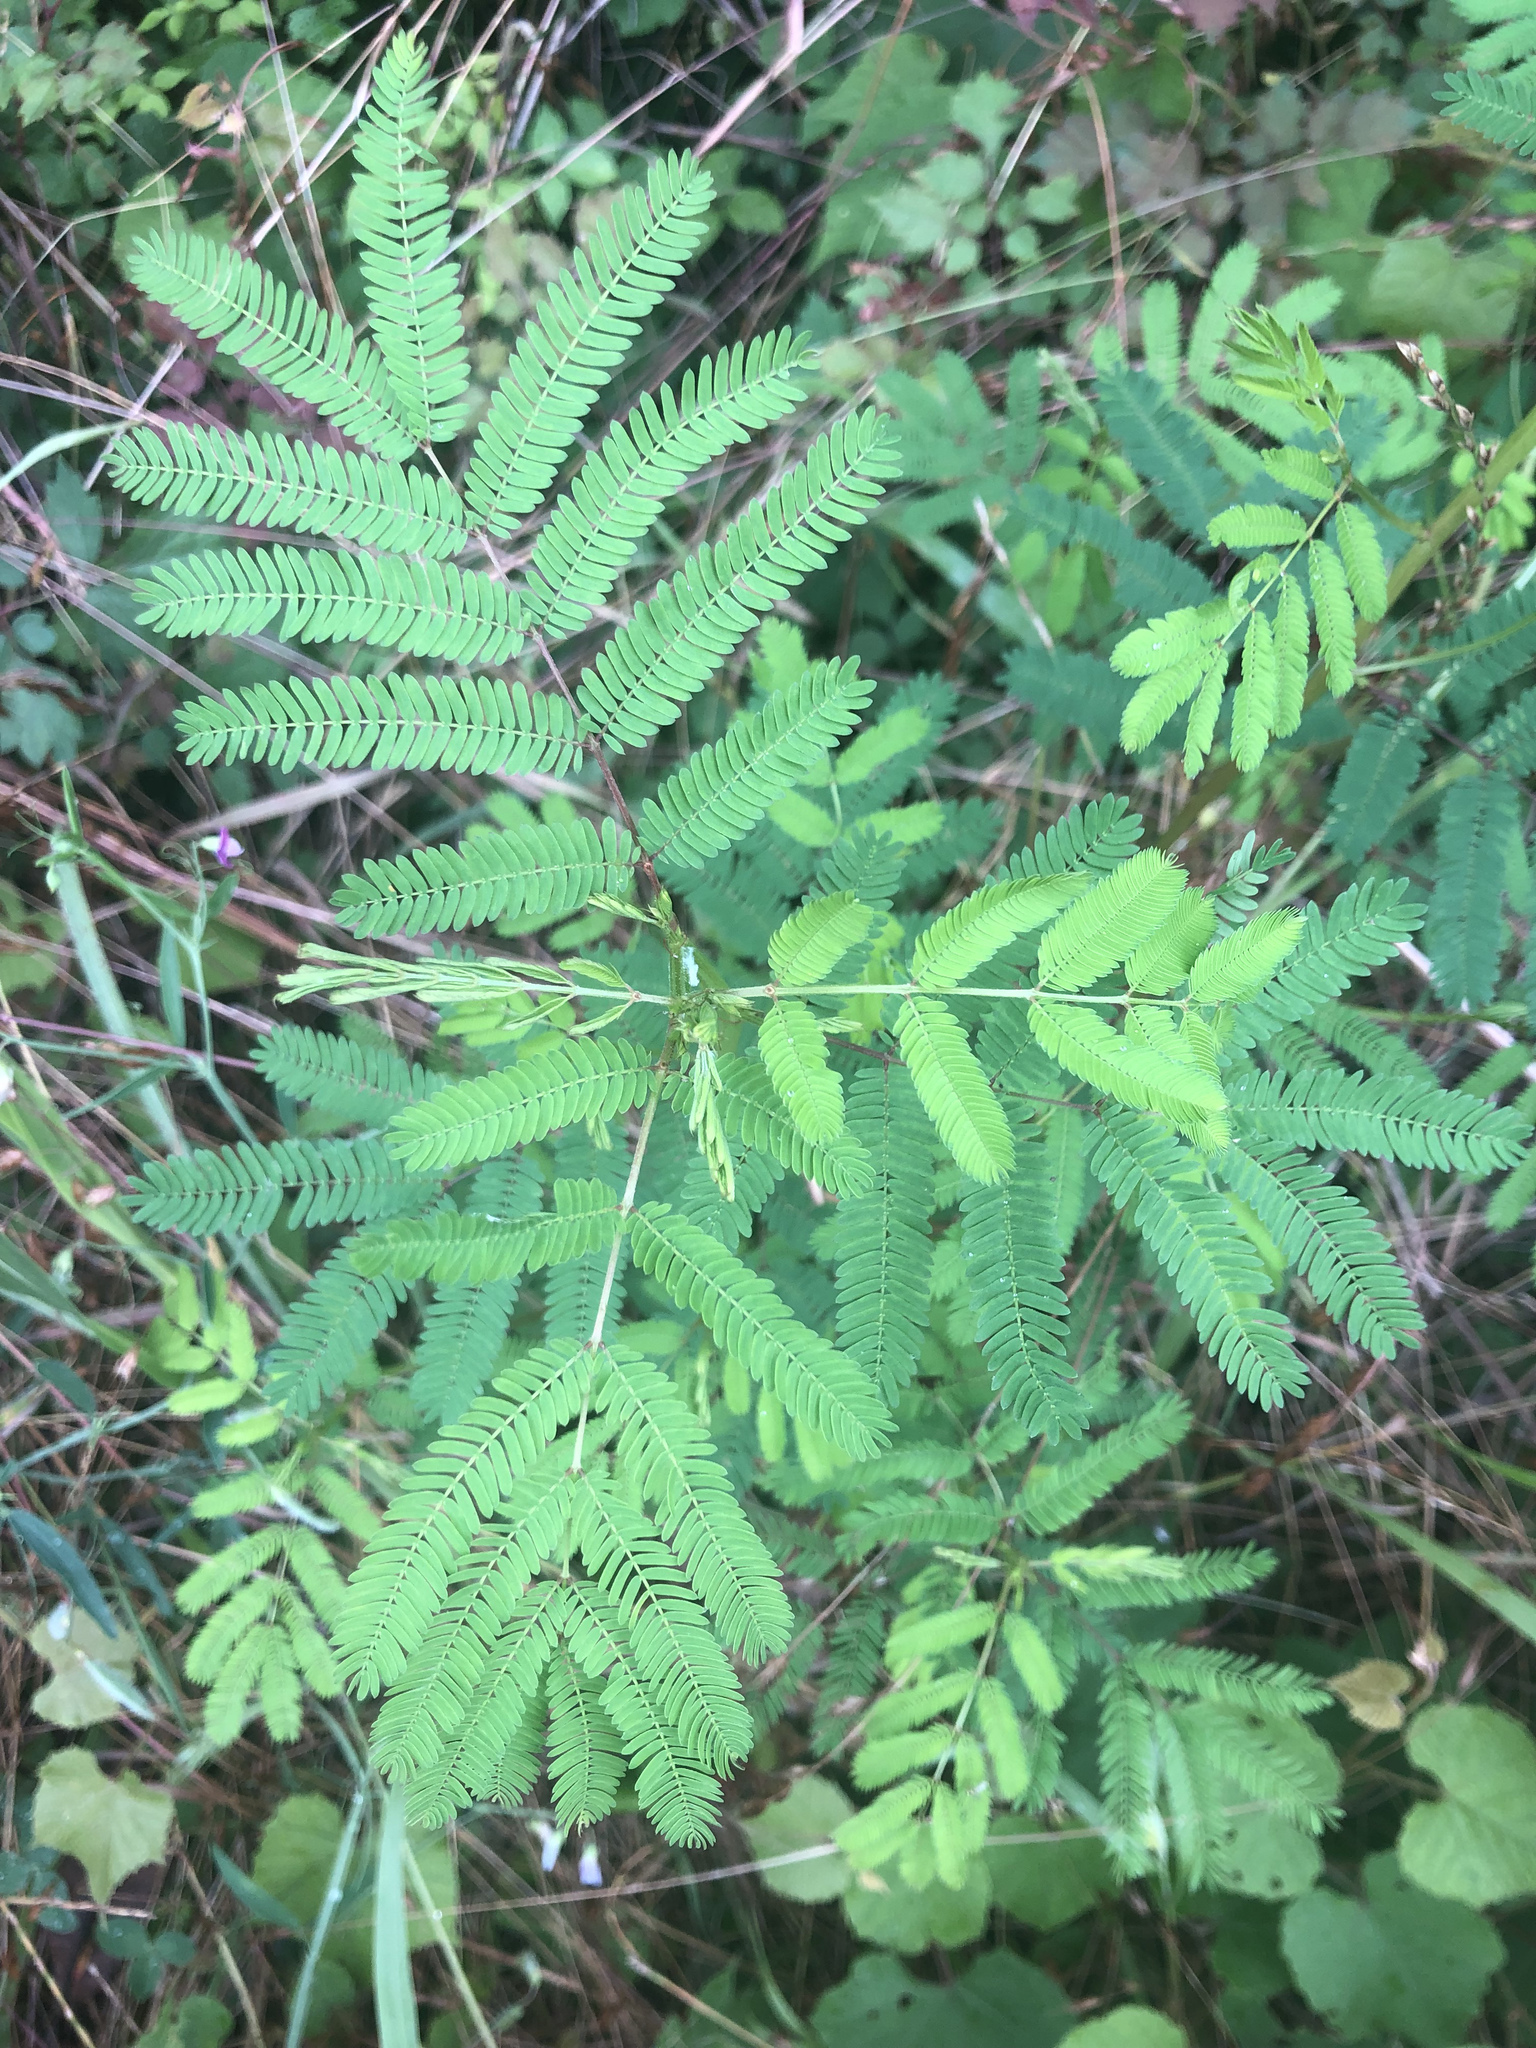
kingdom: Plantae
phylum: Tracheophyta
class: Magnoliopsida
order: Fabales
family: Fabaceae
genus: Desmanthus
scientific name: Desmanthus illinoensis
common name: Illinois bundle-flower
